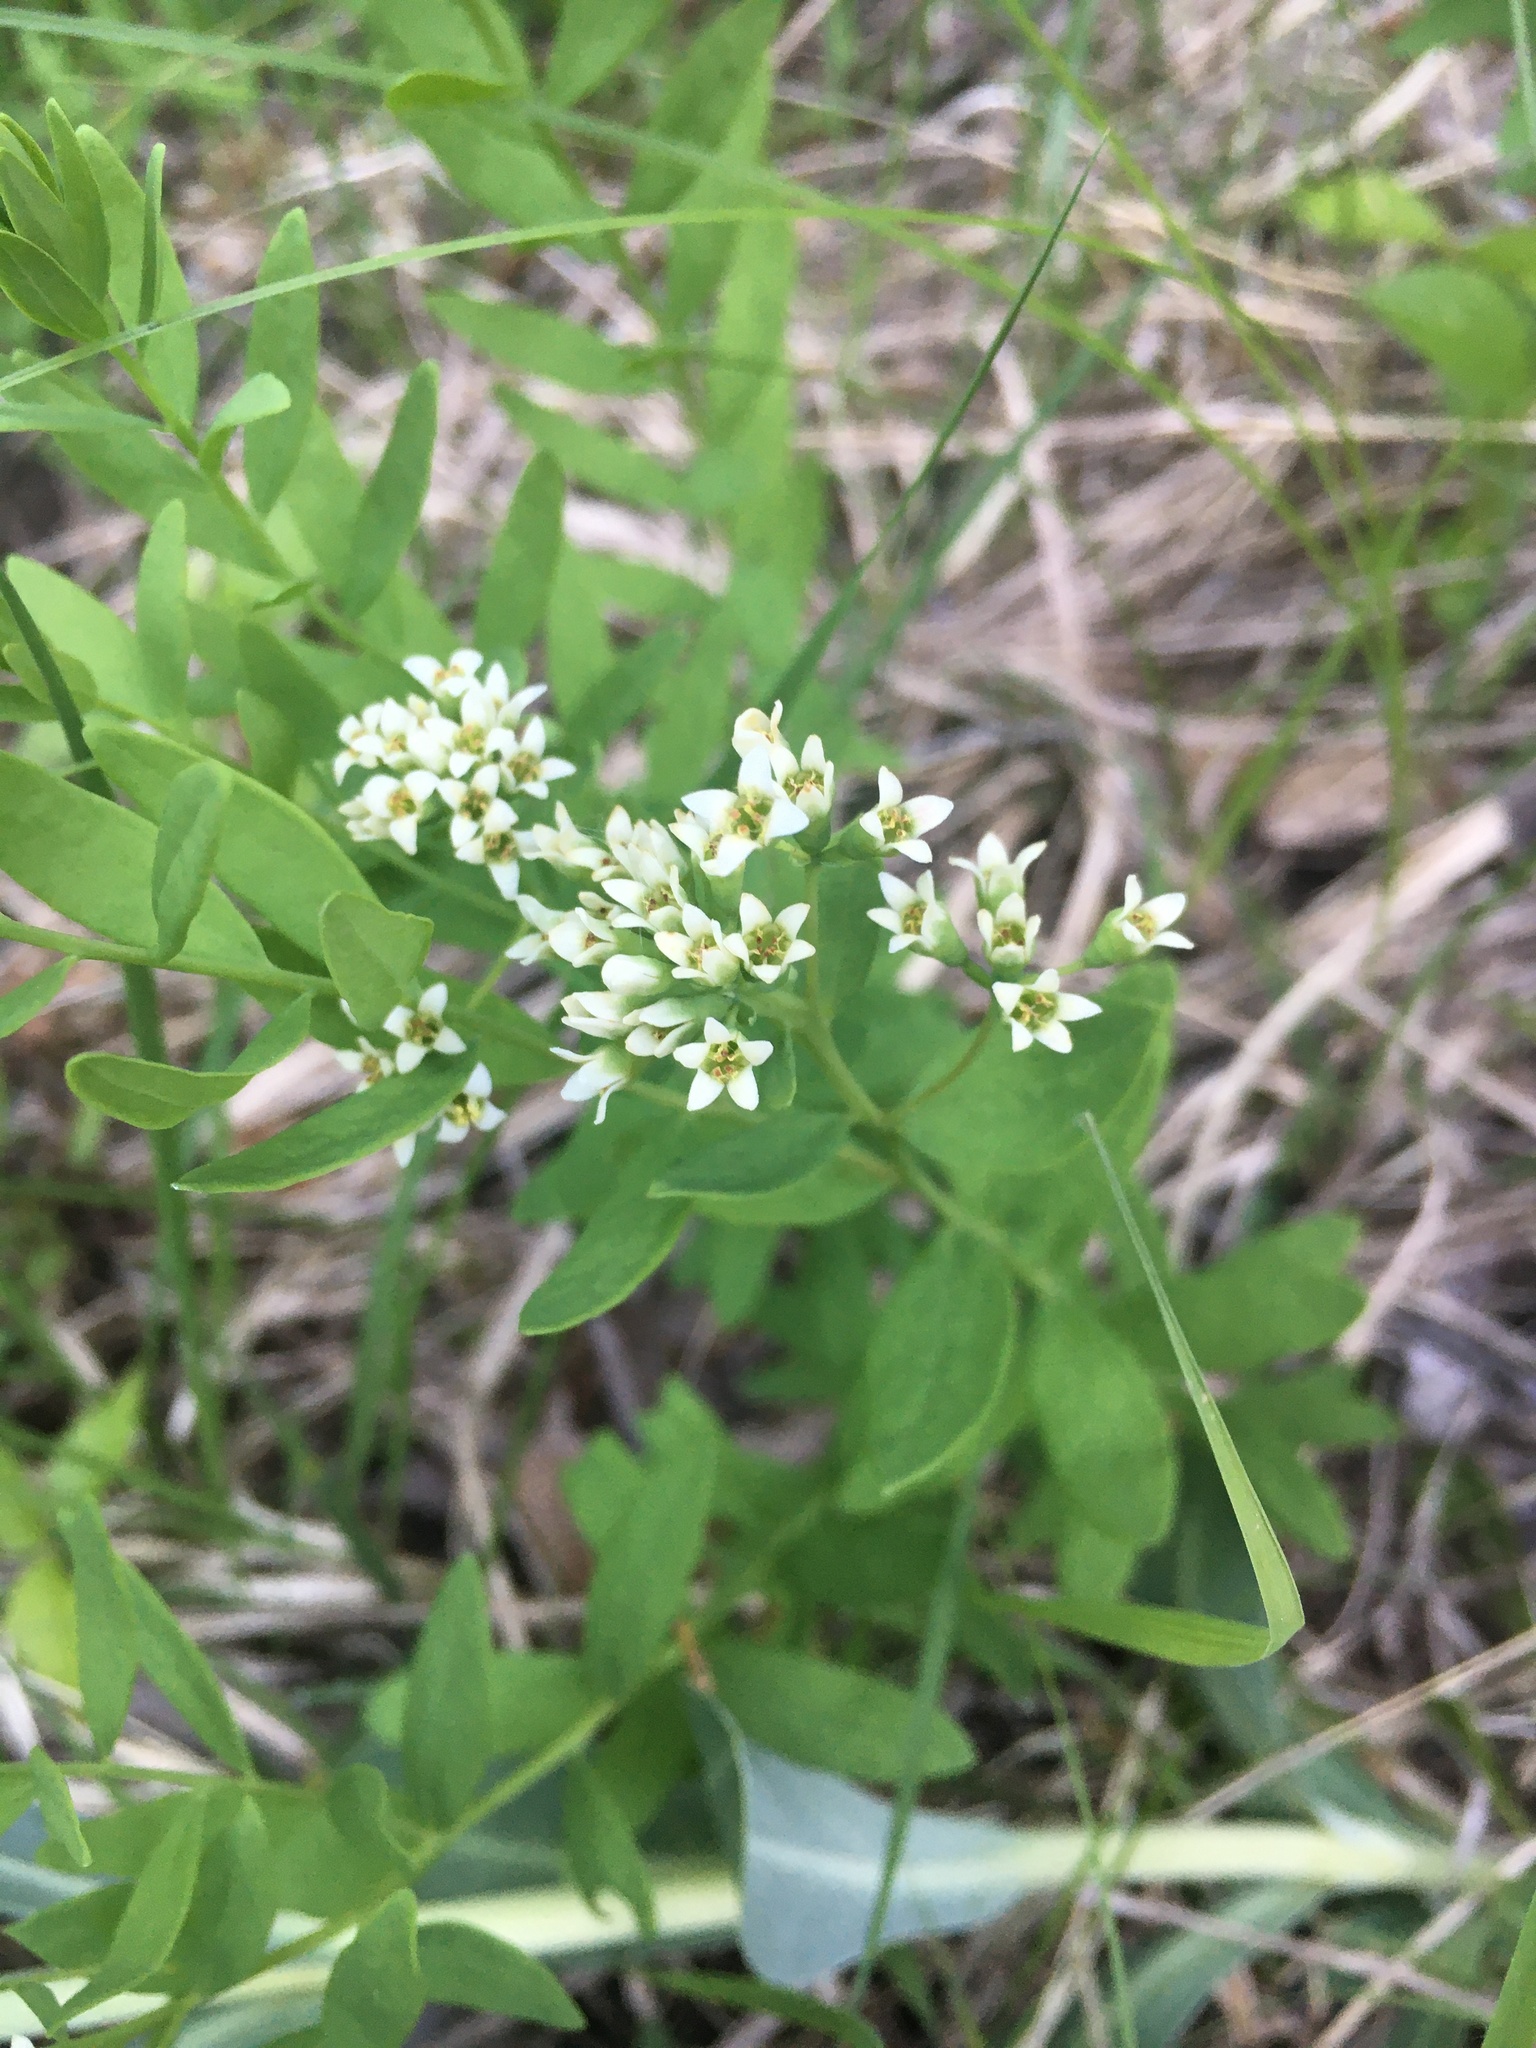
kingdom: Plantae
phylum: Tracheophyta
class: Magnoliopsida
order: Santalales
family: Comandraceae
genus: Comandra
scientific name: Comandra umbellata
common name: Bastard toadflax
